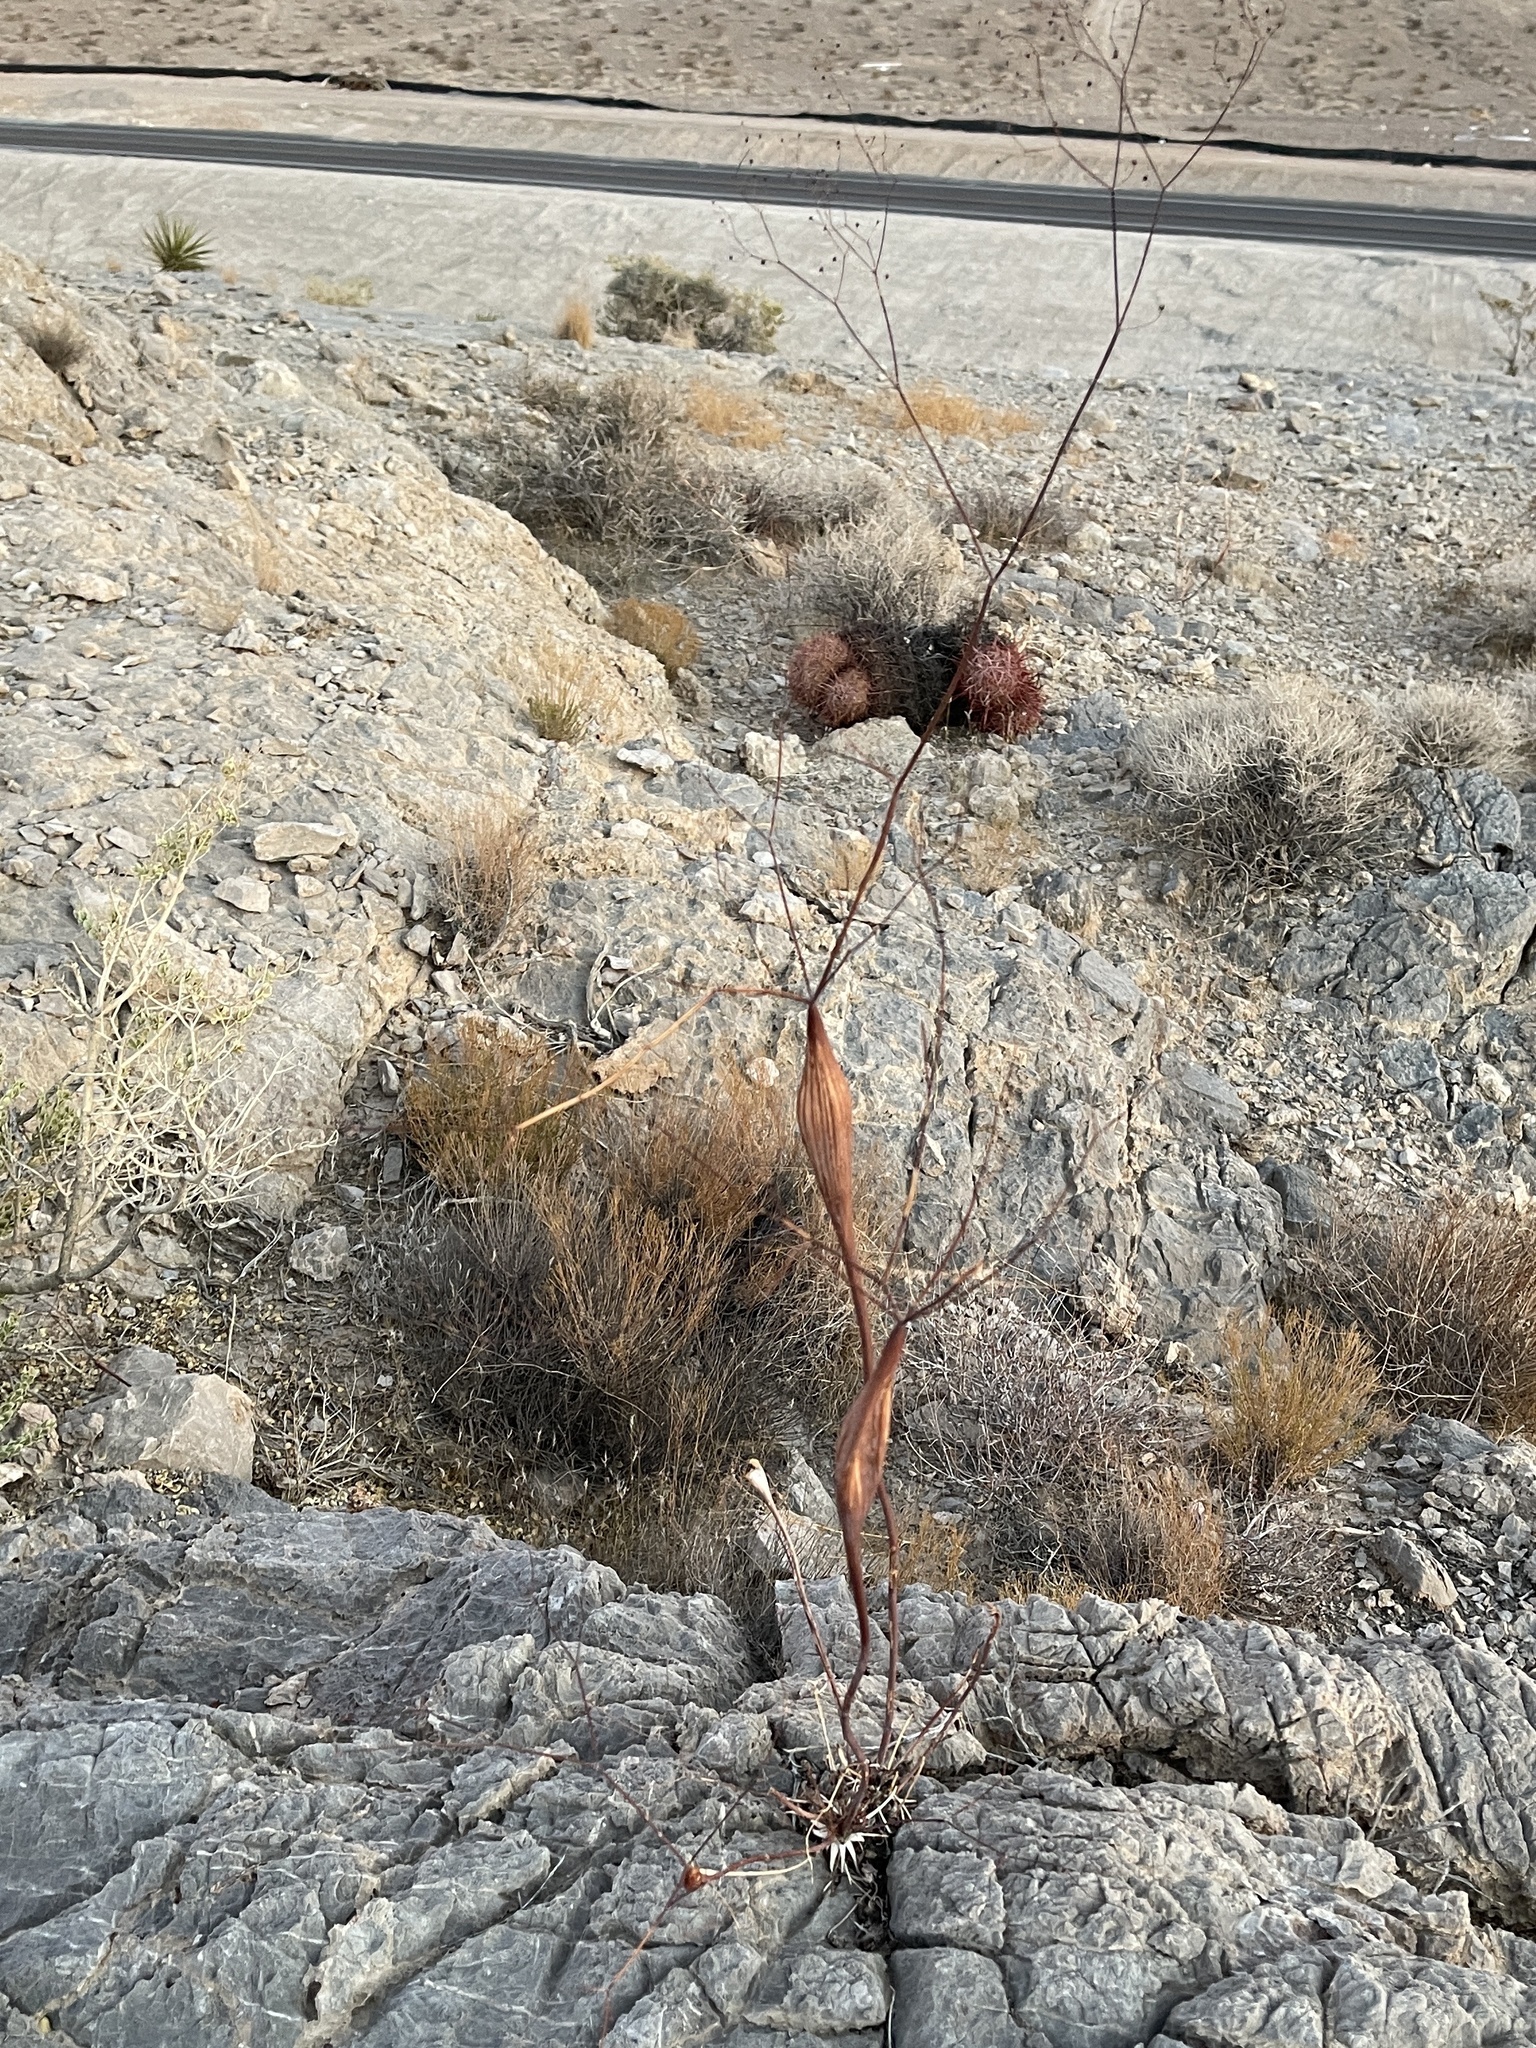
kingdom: Plantae
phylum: Tracheophyta
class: Magnoliopsida
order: Caryophyllales
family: Polygonaceae
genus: Eriogonum
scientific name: Eriogonum inflatum
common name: Desert trumpet
